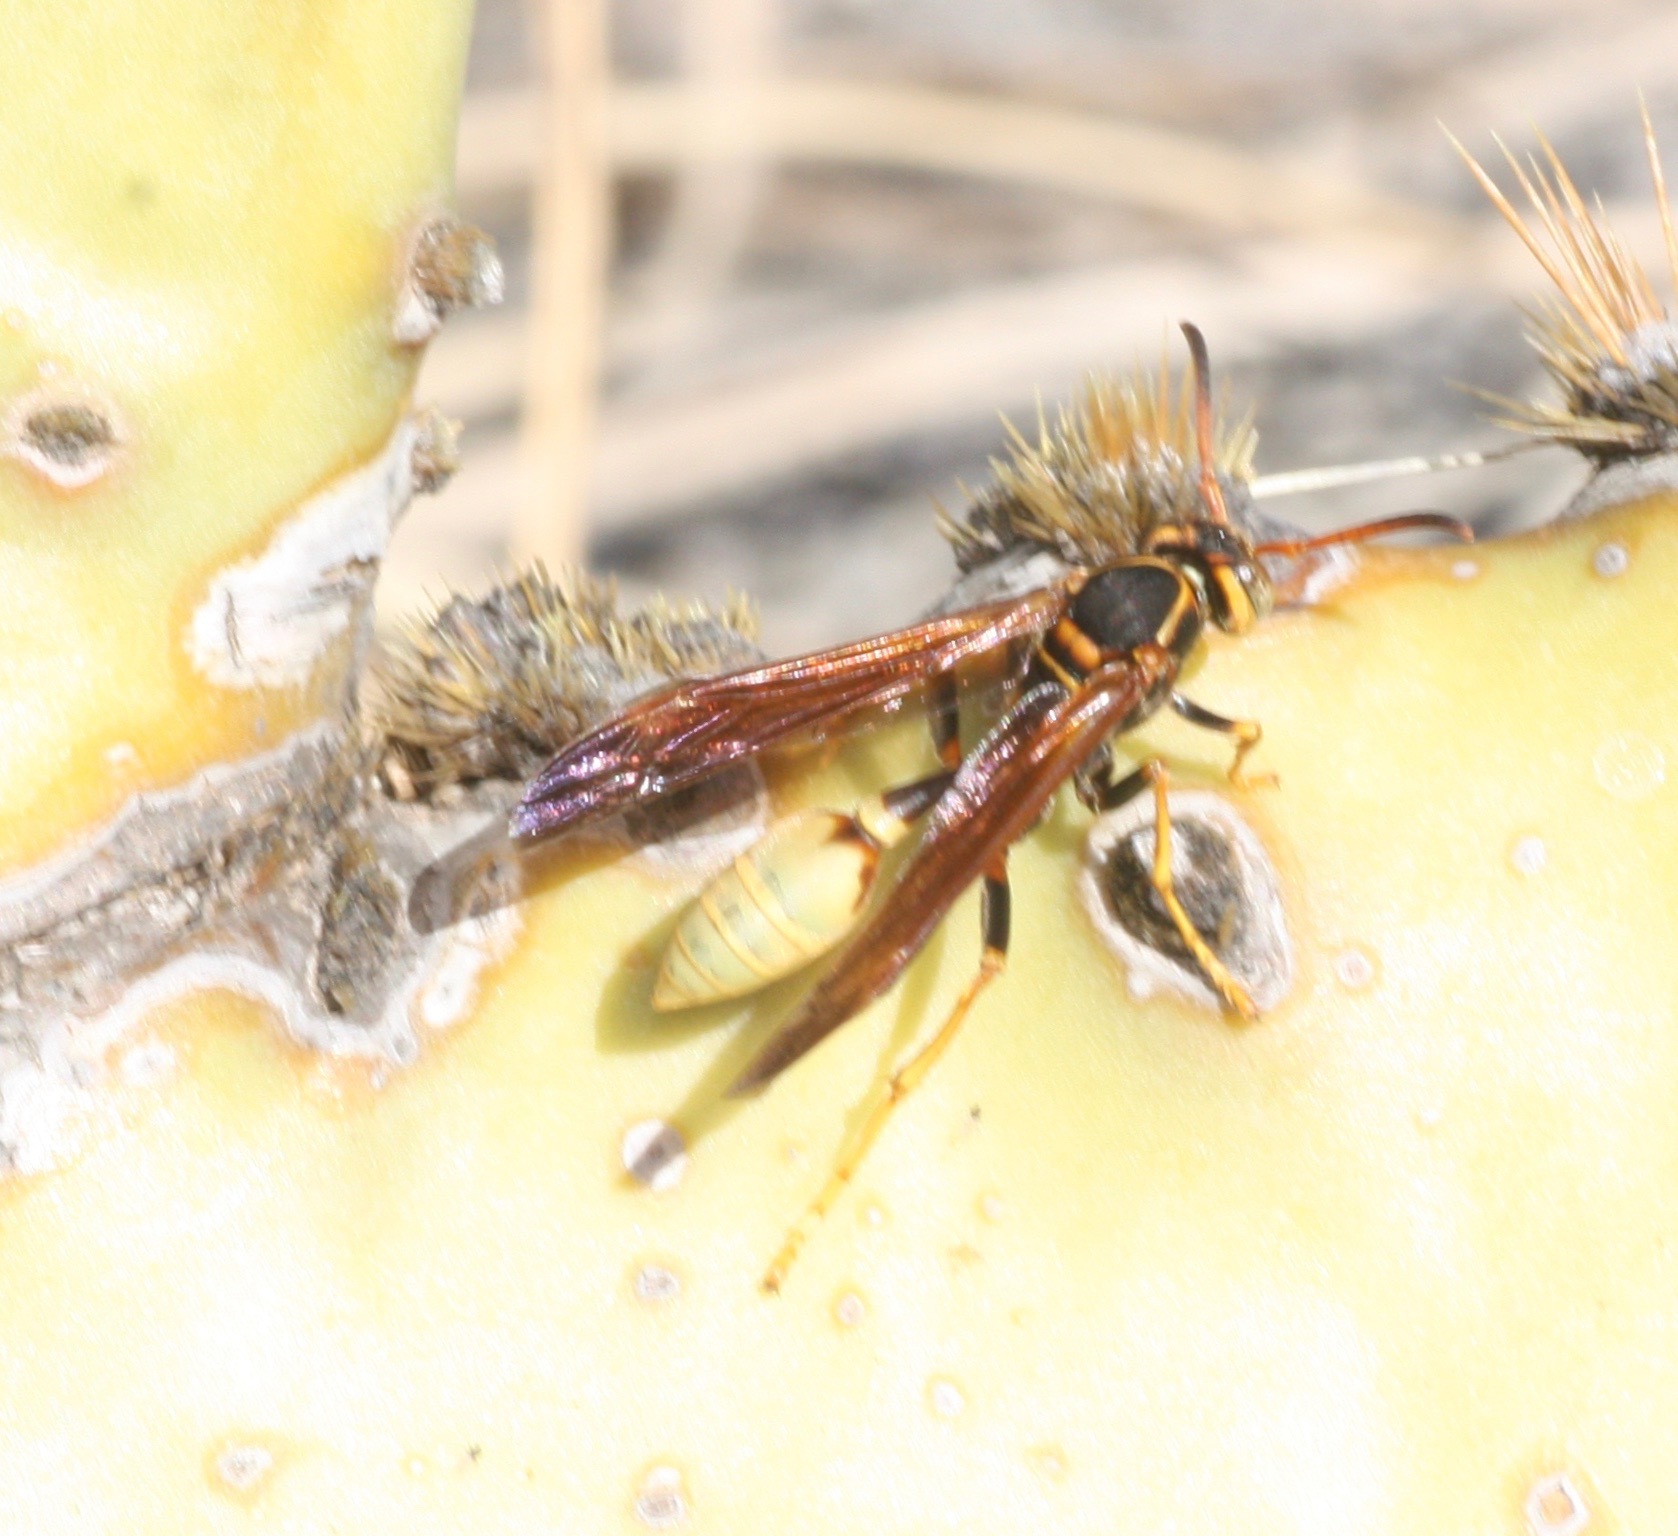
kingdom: Animalia
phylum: Arthropoda
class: Insecta
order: Hymenoptera
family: Vespidae
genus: Mischocyttarus
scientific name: Mischocyttarus flavitarsis
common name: Wasp
